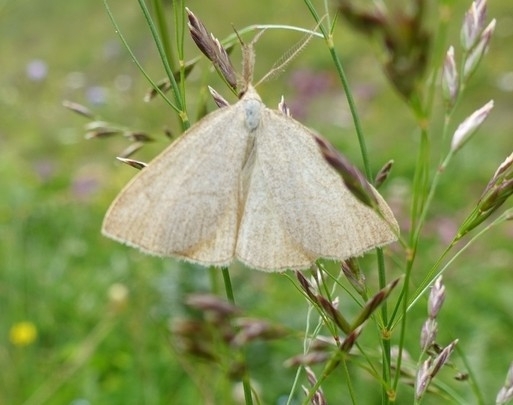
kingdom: Animalia
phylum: Arthropoda
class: Insecta
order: Lepidoptera
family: Erebidae
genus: Polypogon
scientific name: Polypogon tentacularia
